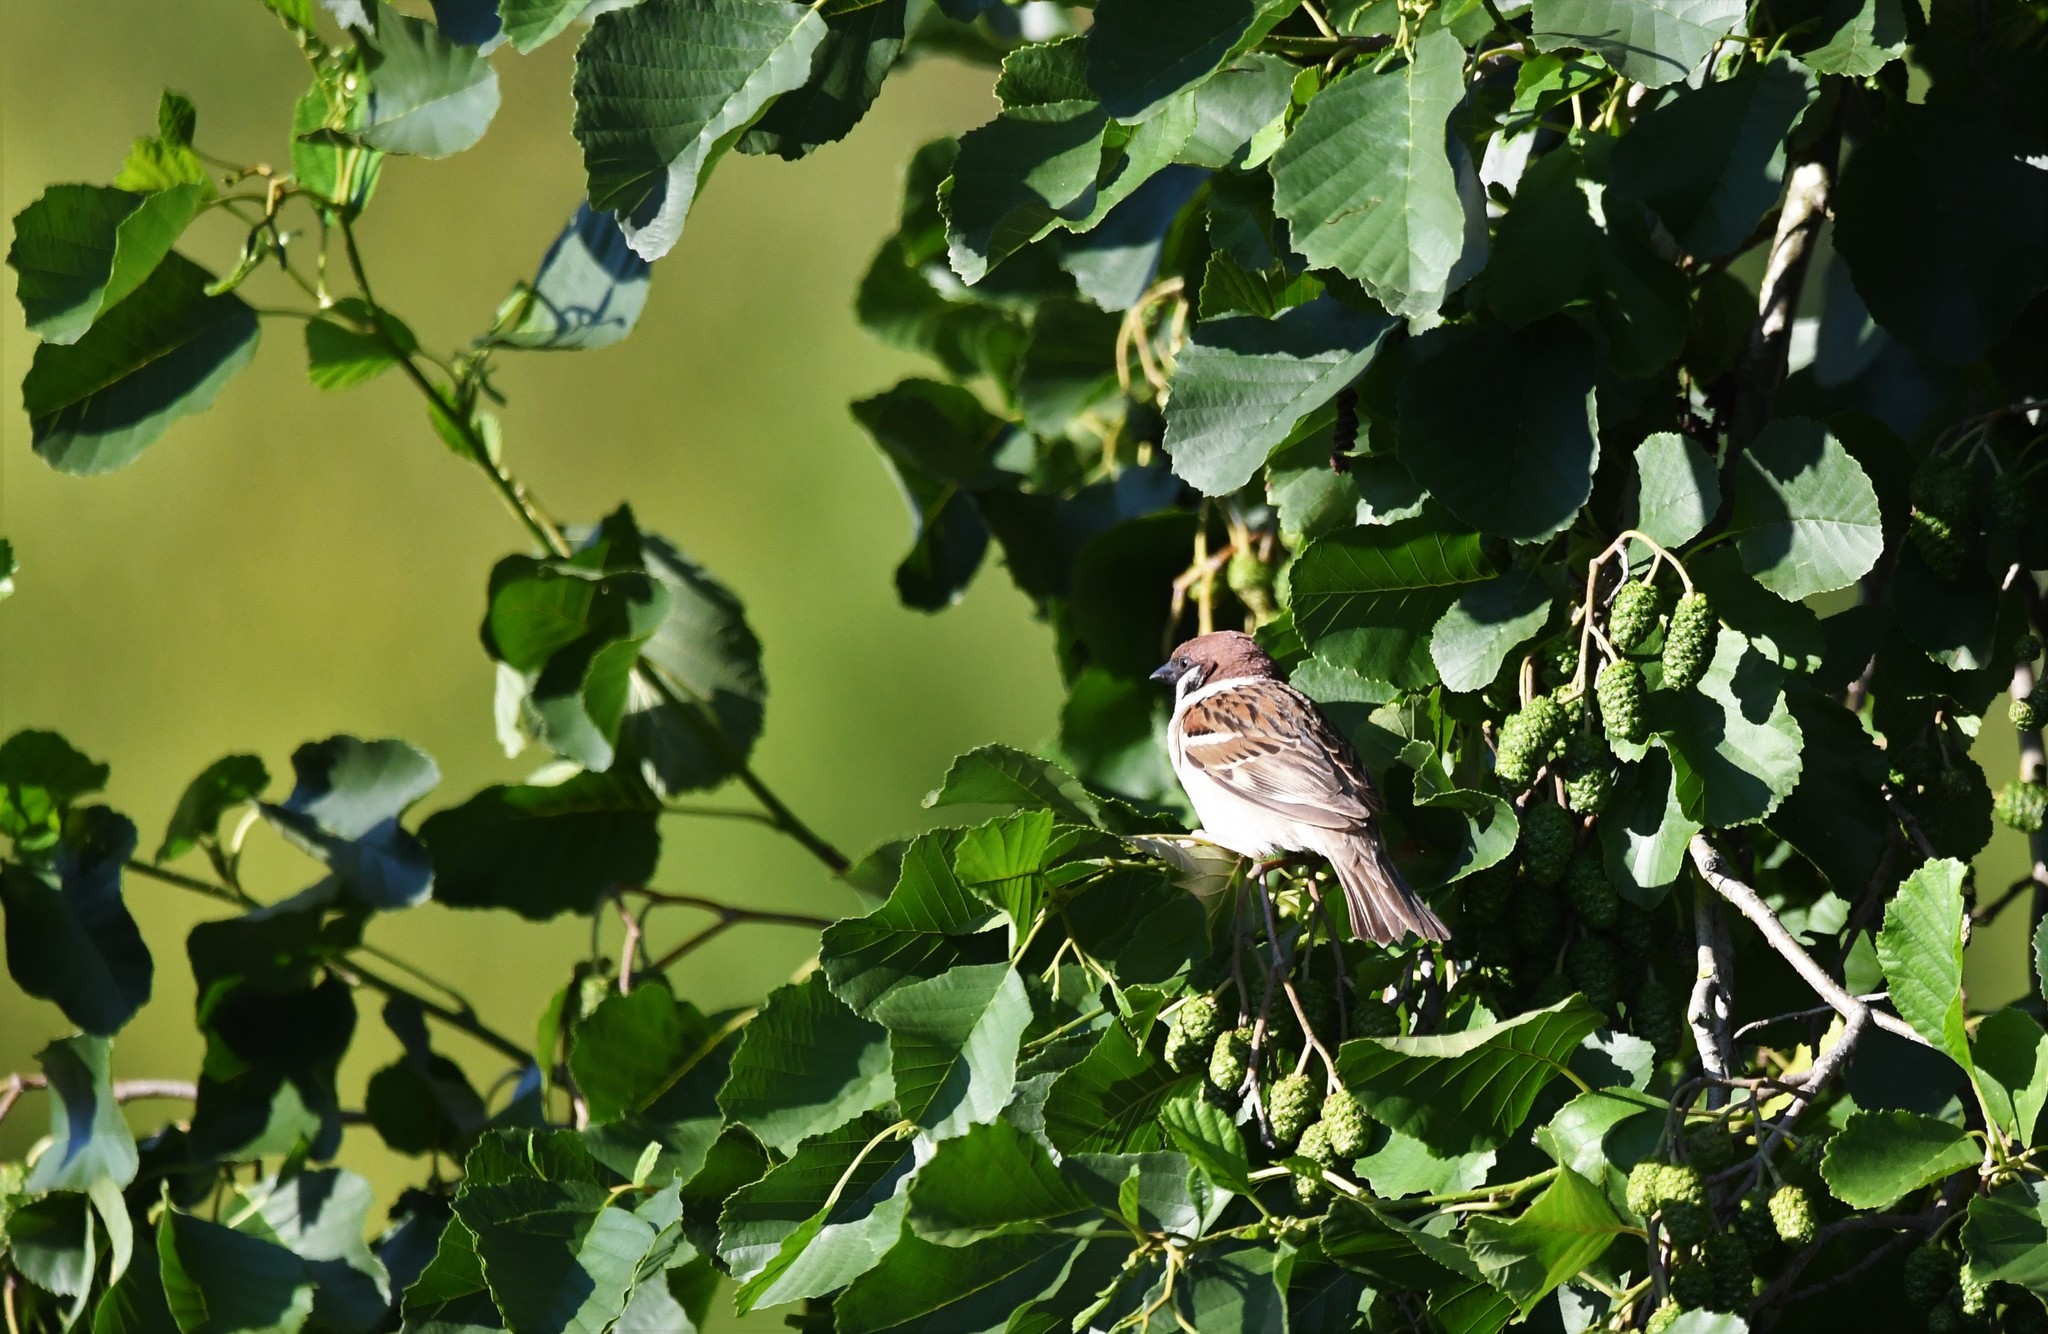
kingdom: Animalia
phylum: Chordata
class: Aves
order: Passeriformes
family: Passeridae
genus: Passer
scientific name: Passer montanus
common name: Eurasian tree sparrow
